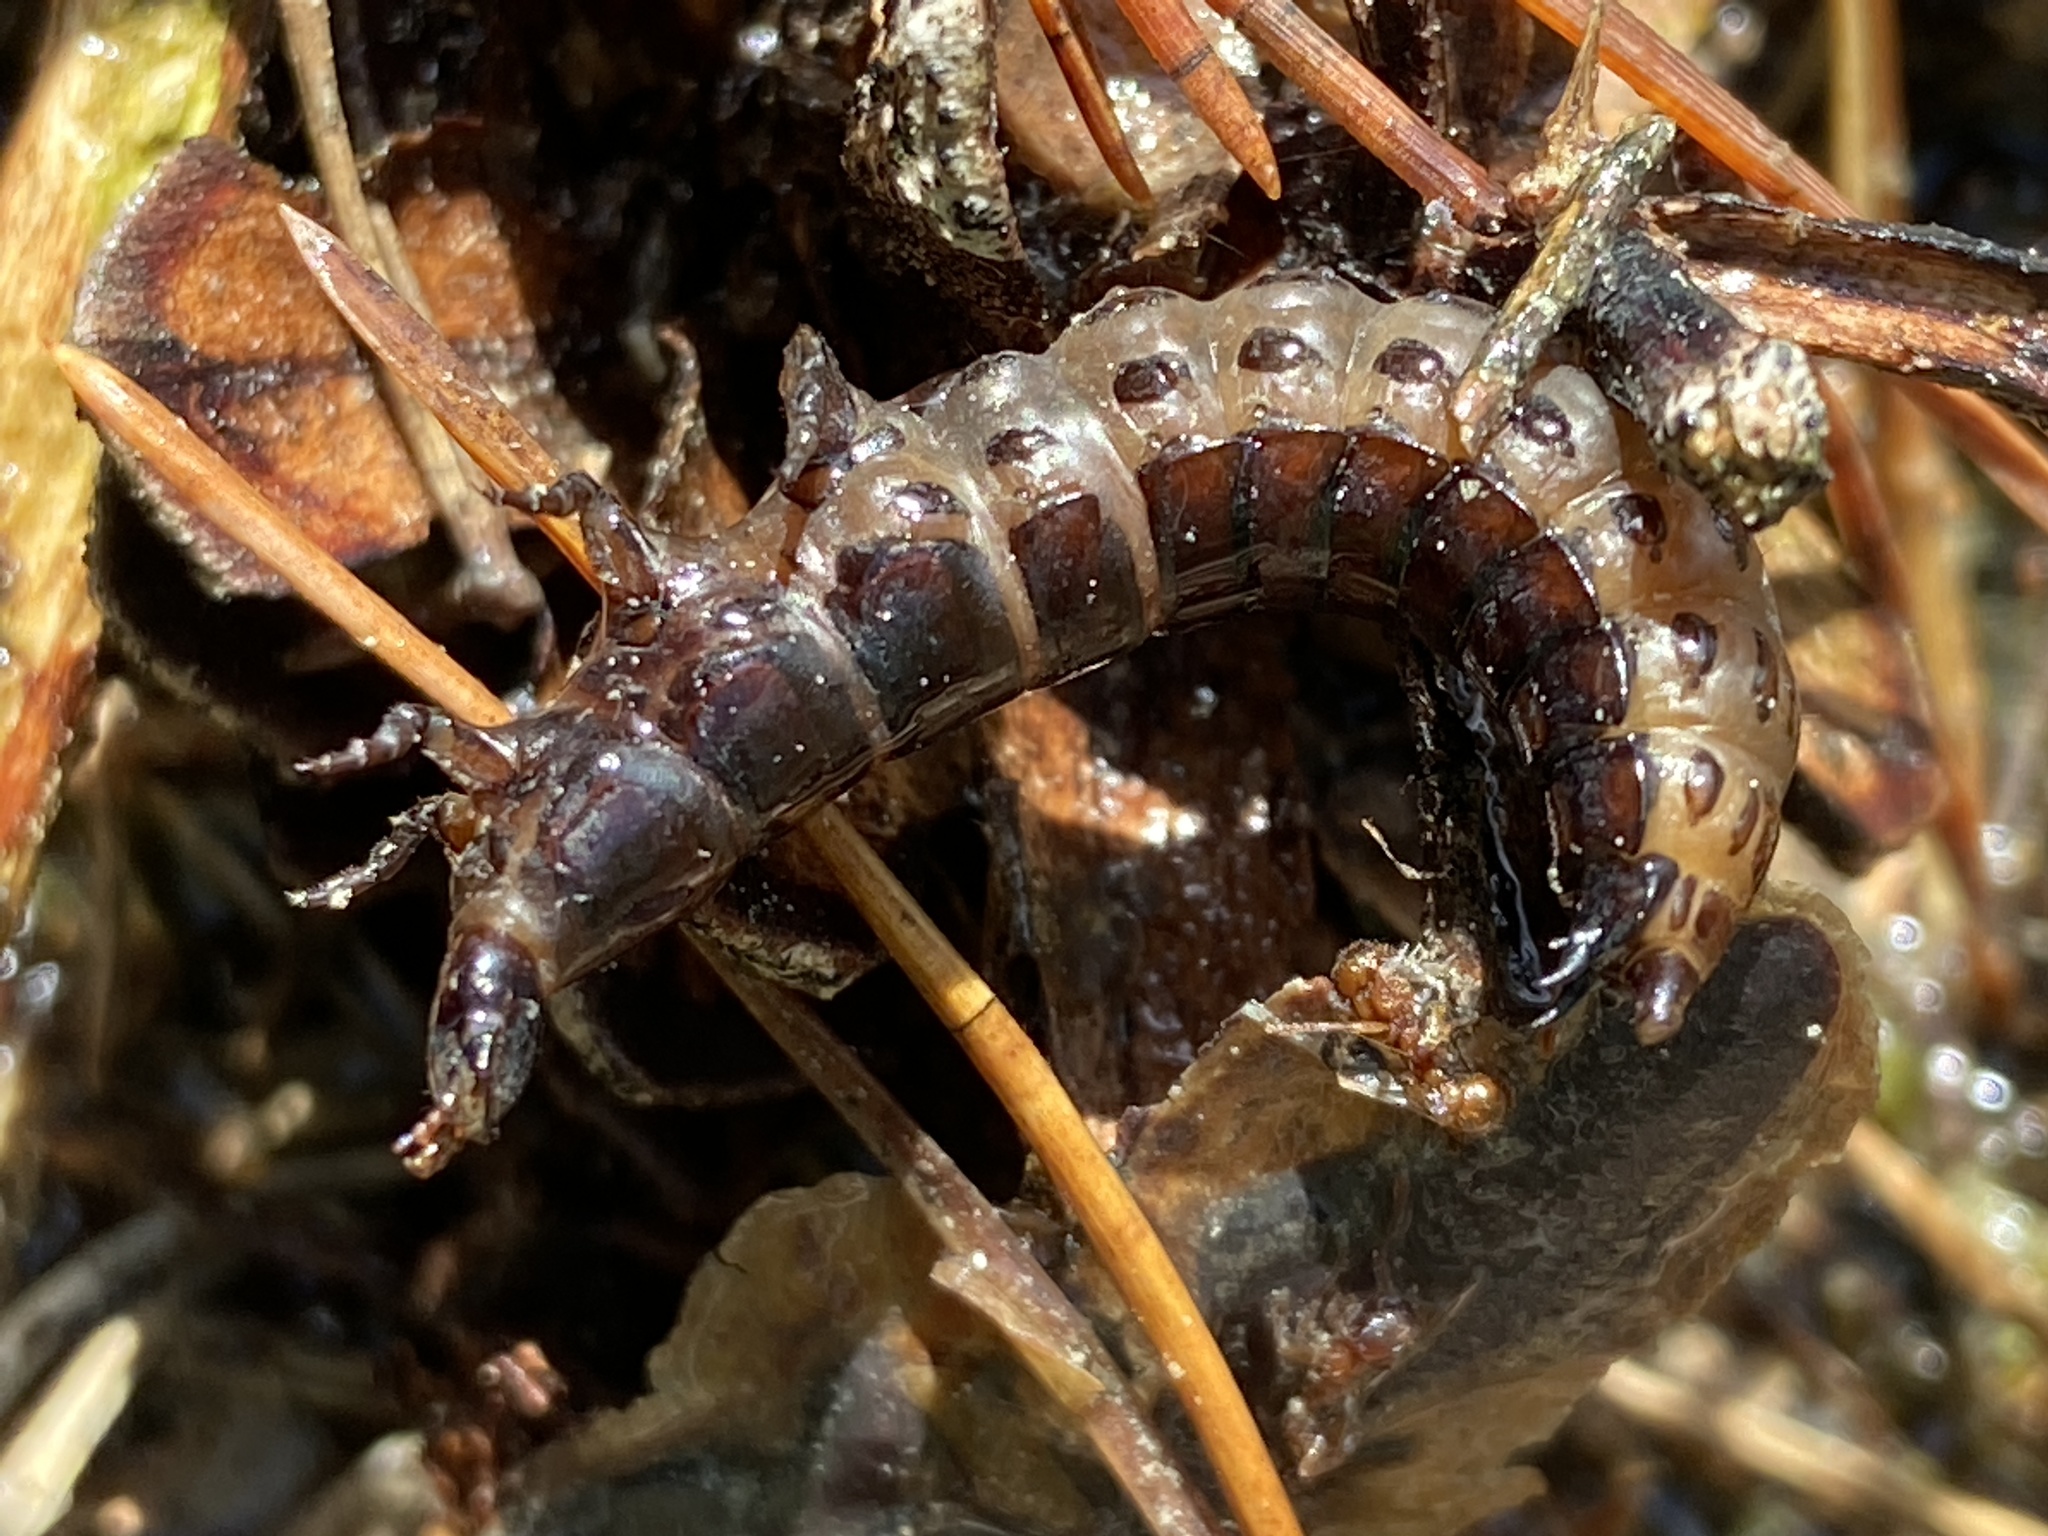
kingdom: Animalia
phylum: Arthropoda
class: Insecta
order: Coleoptera
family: Carabidae
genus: Carabus
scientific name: Carabus
